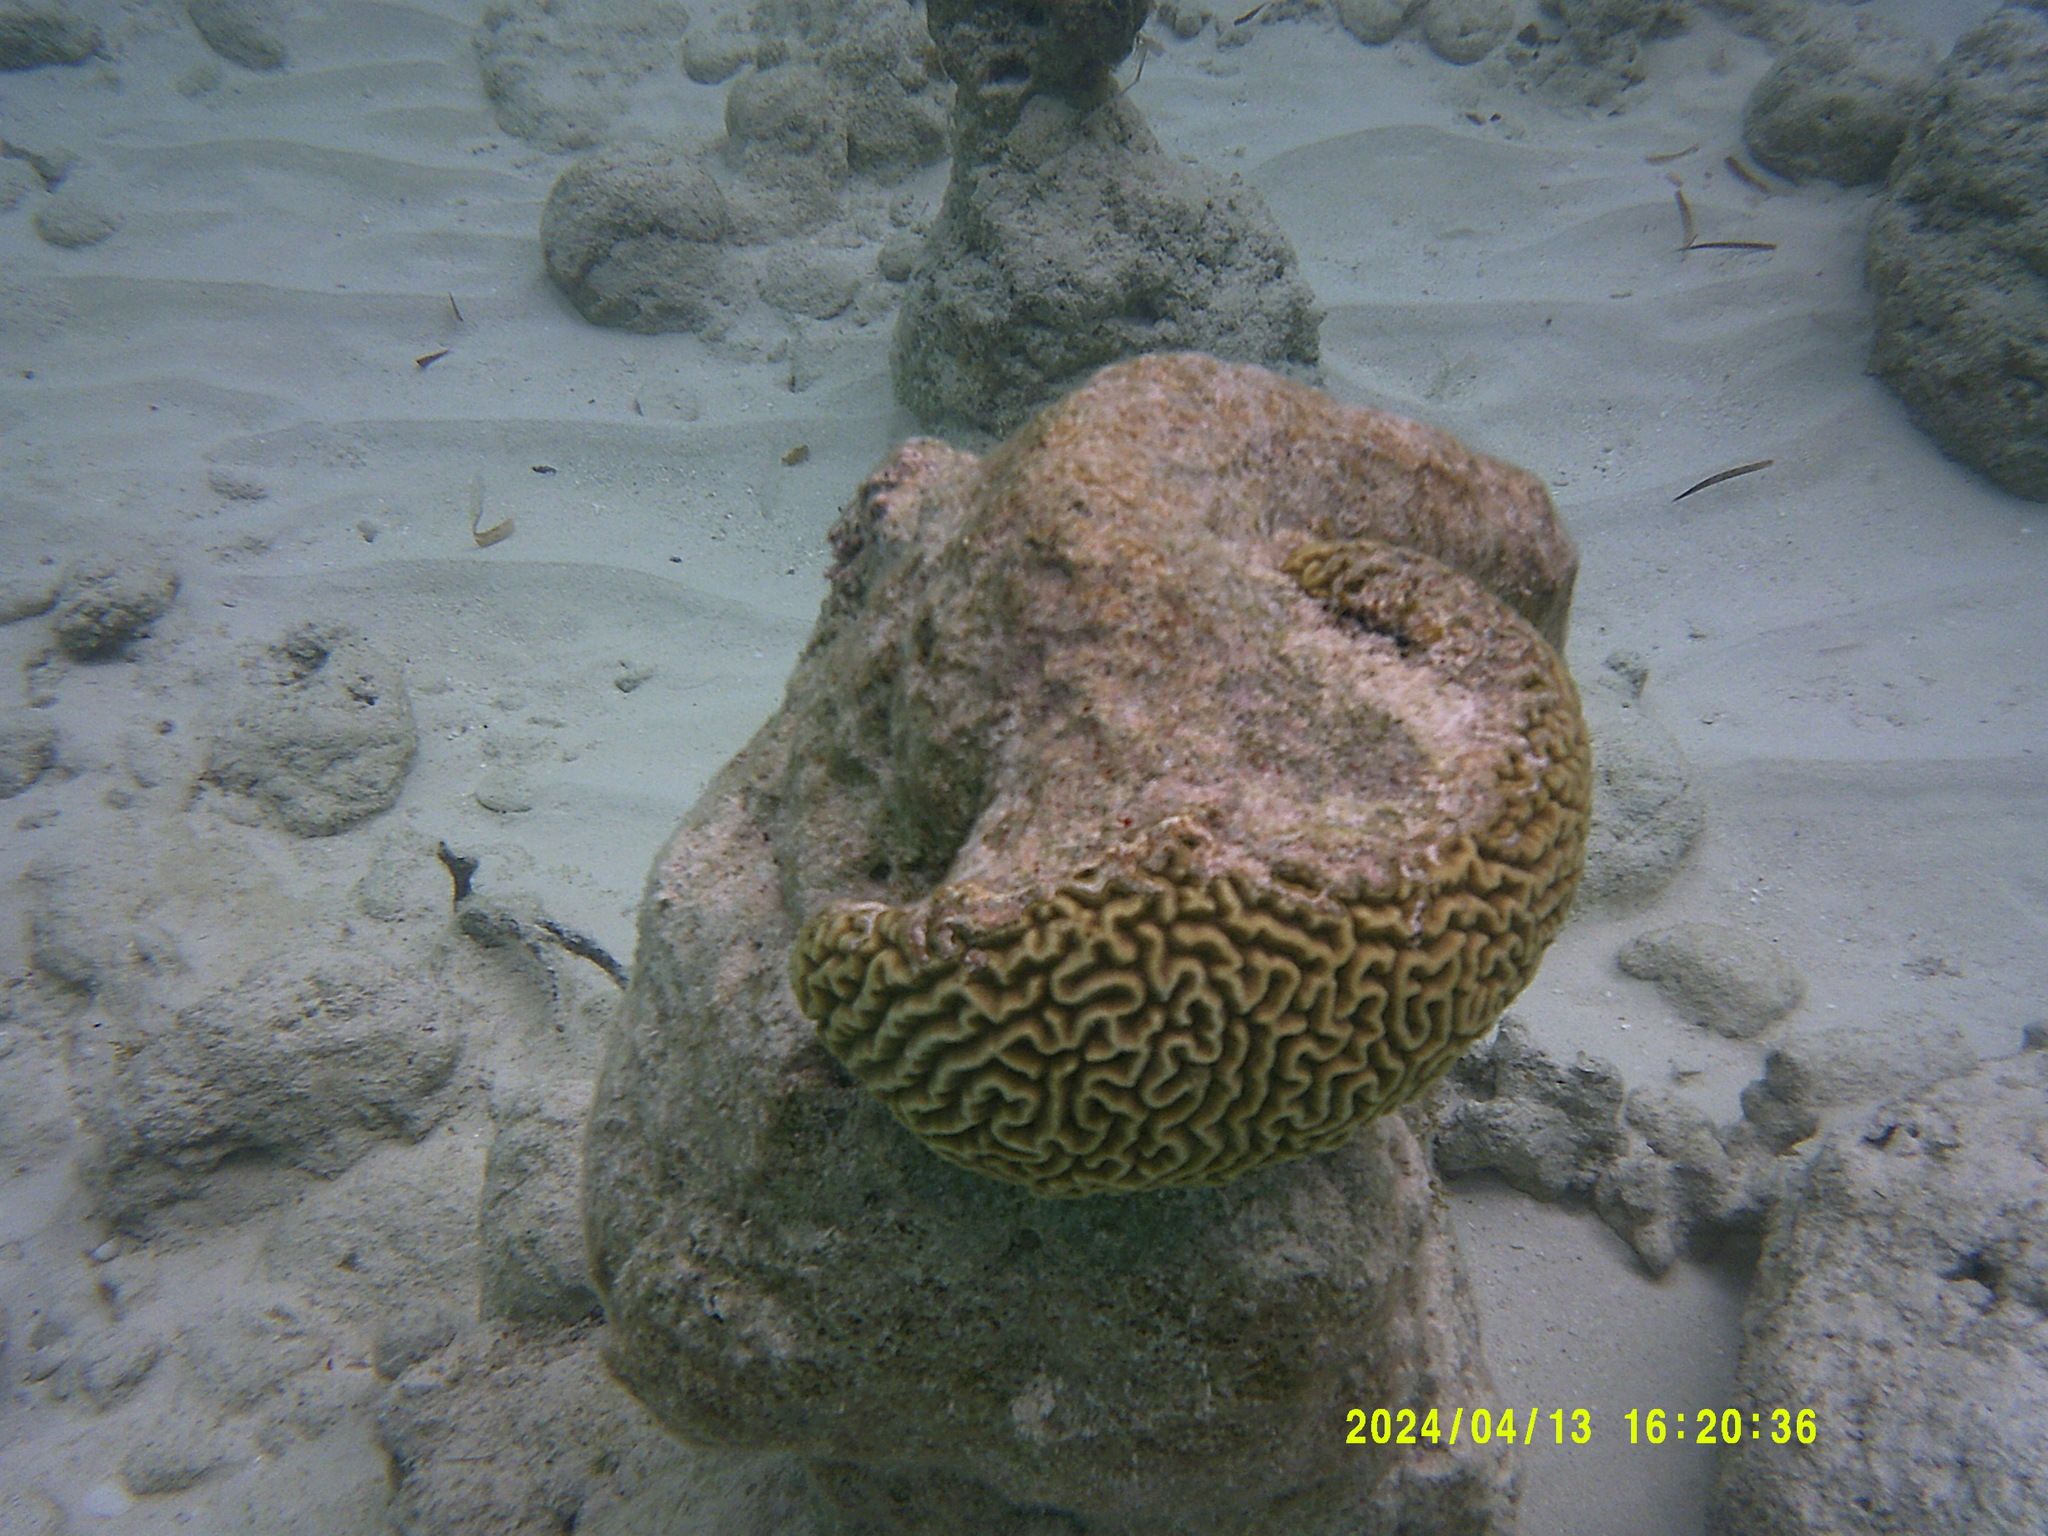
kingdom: Animalia
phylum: Cnidaria
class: Anthozoa
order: Scleractinia
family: Faviidae
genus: Pseudodiploria
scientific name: Pseudodiploria strigosa
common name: Symmetrical brain coral
